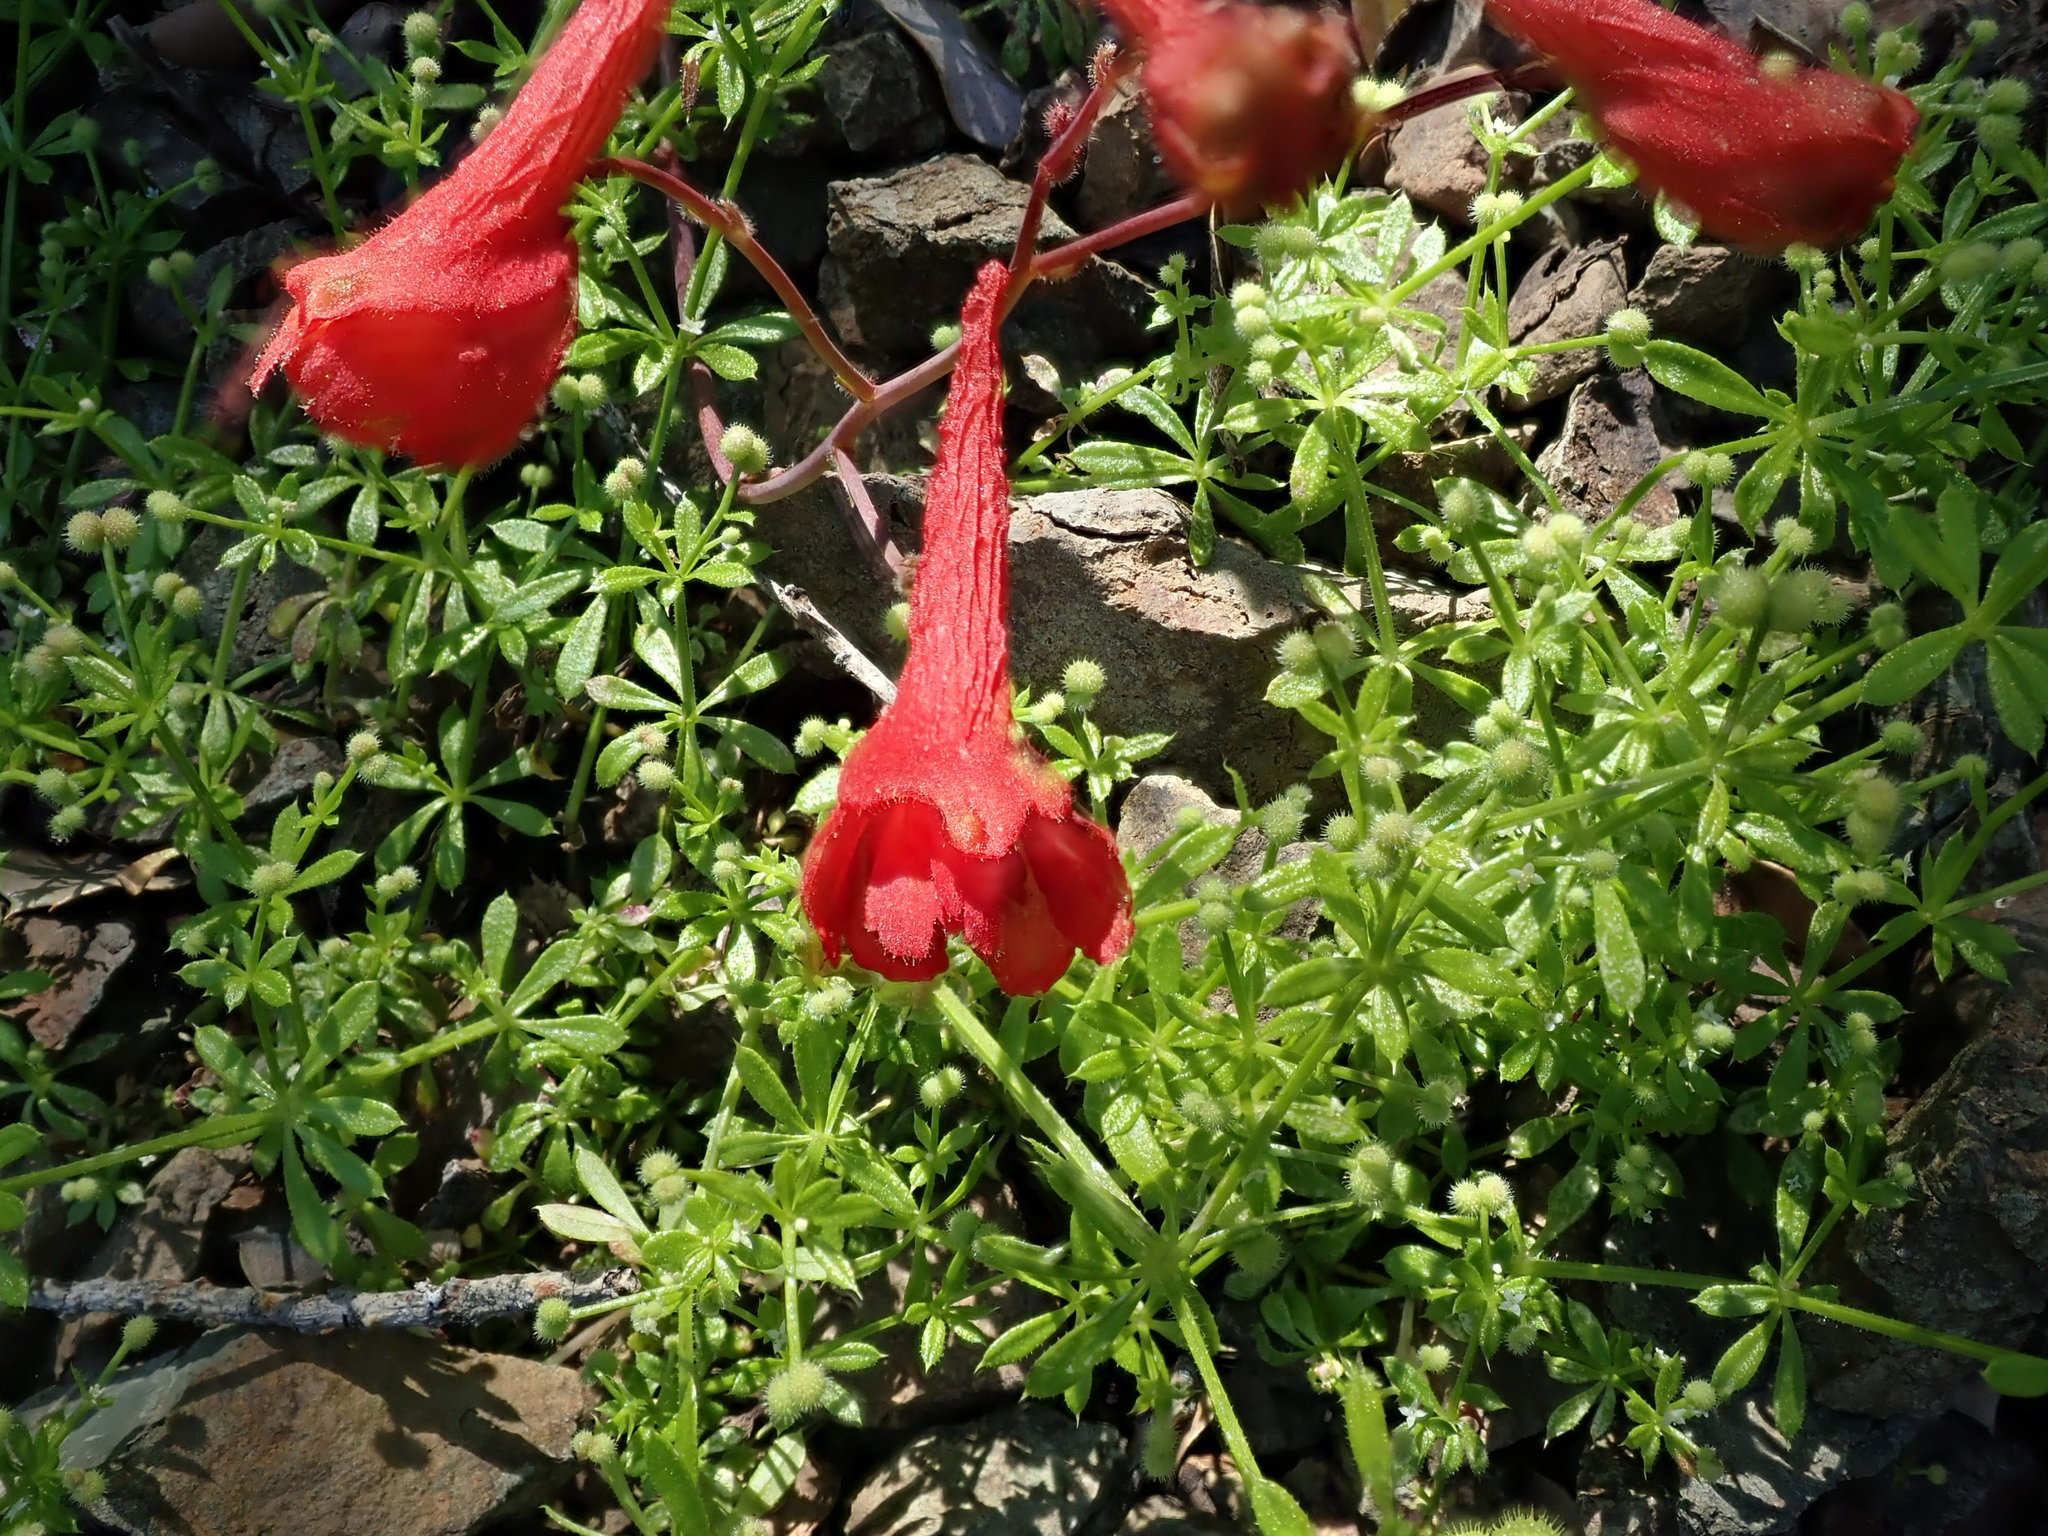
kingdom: Plantae
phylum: Tracheophyta
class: Magnoliopsida
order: Ranunculales
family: Ranunculaceae
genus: Delphinium
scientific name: Delphinium nudicaule
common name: Red larkspur
